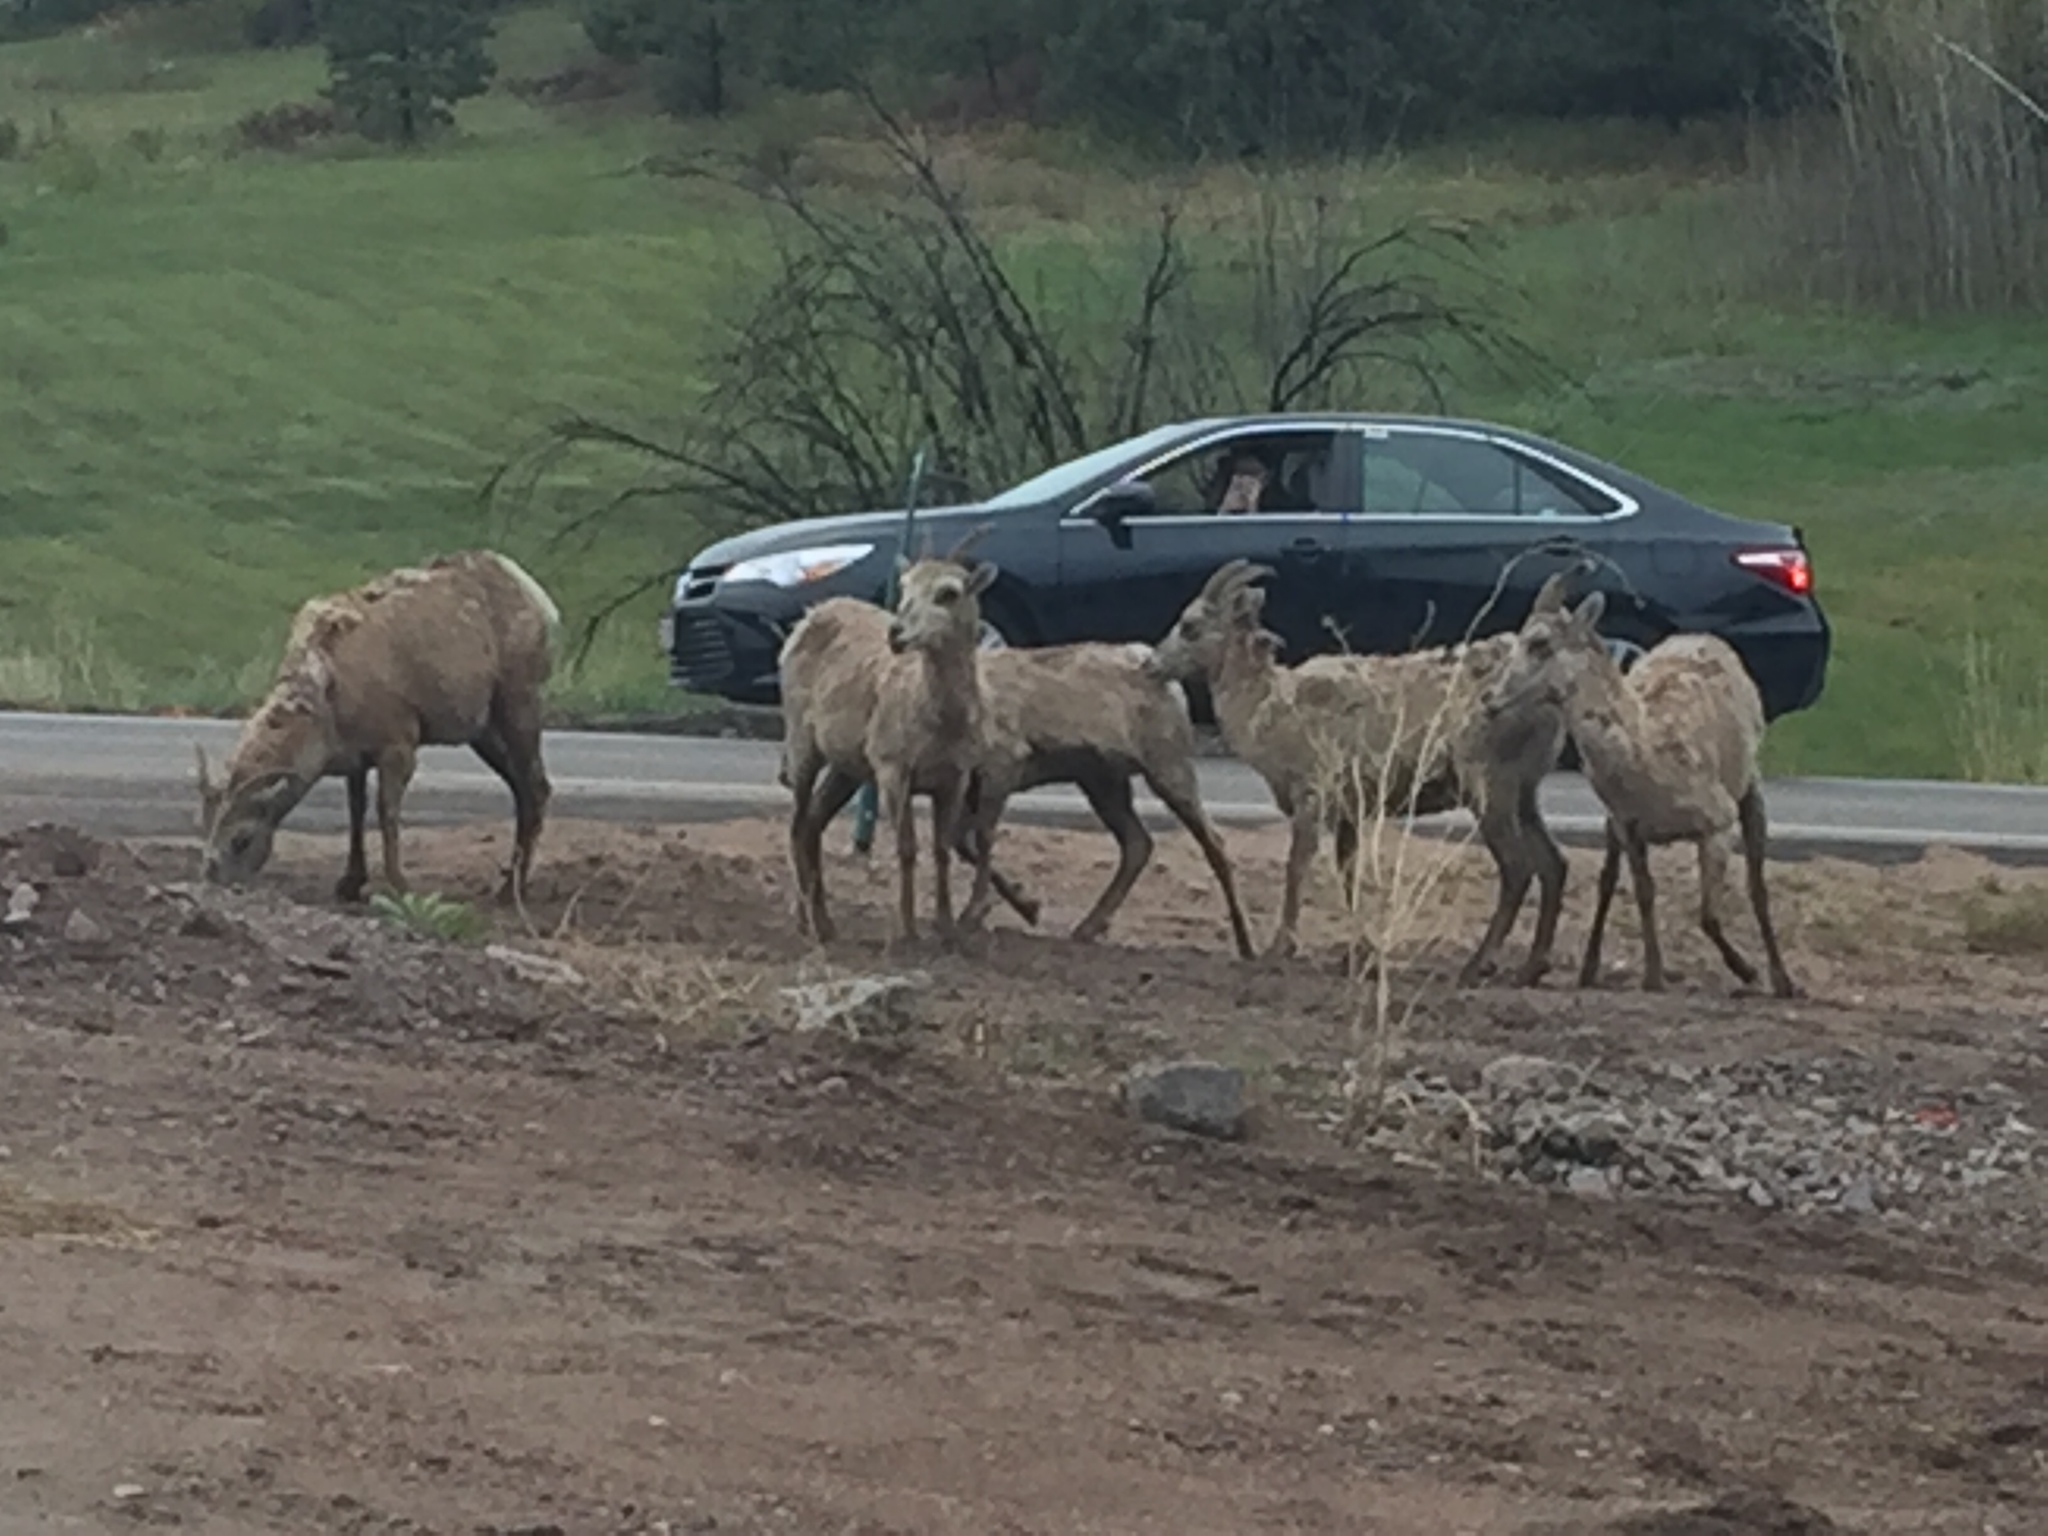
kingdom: Animalia
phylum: Chordata
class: Mammalia
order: Artiodactyla
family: Bovidae
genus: Ovis
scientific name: Ovis canadensis
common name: Bighorn sheep
